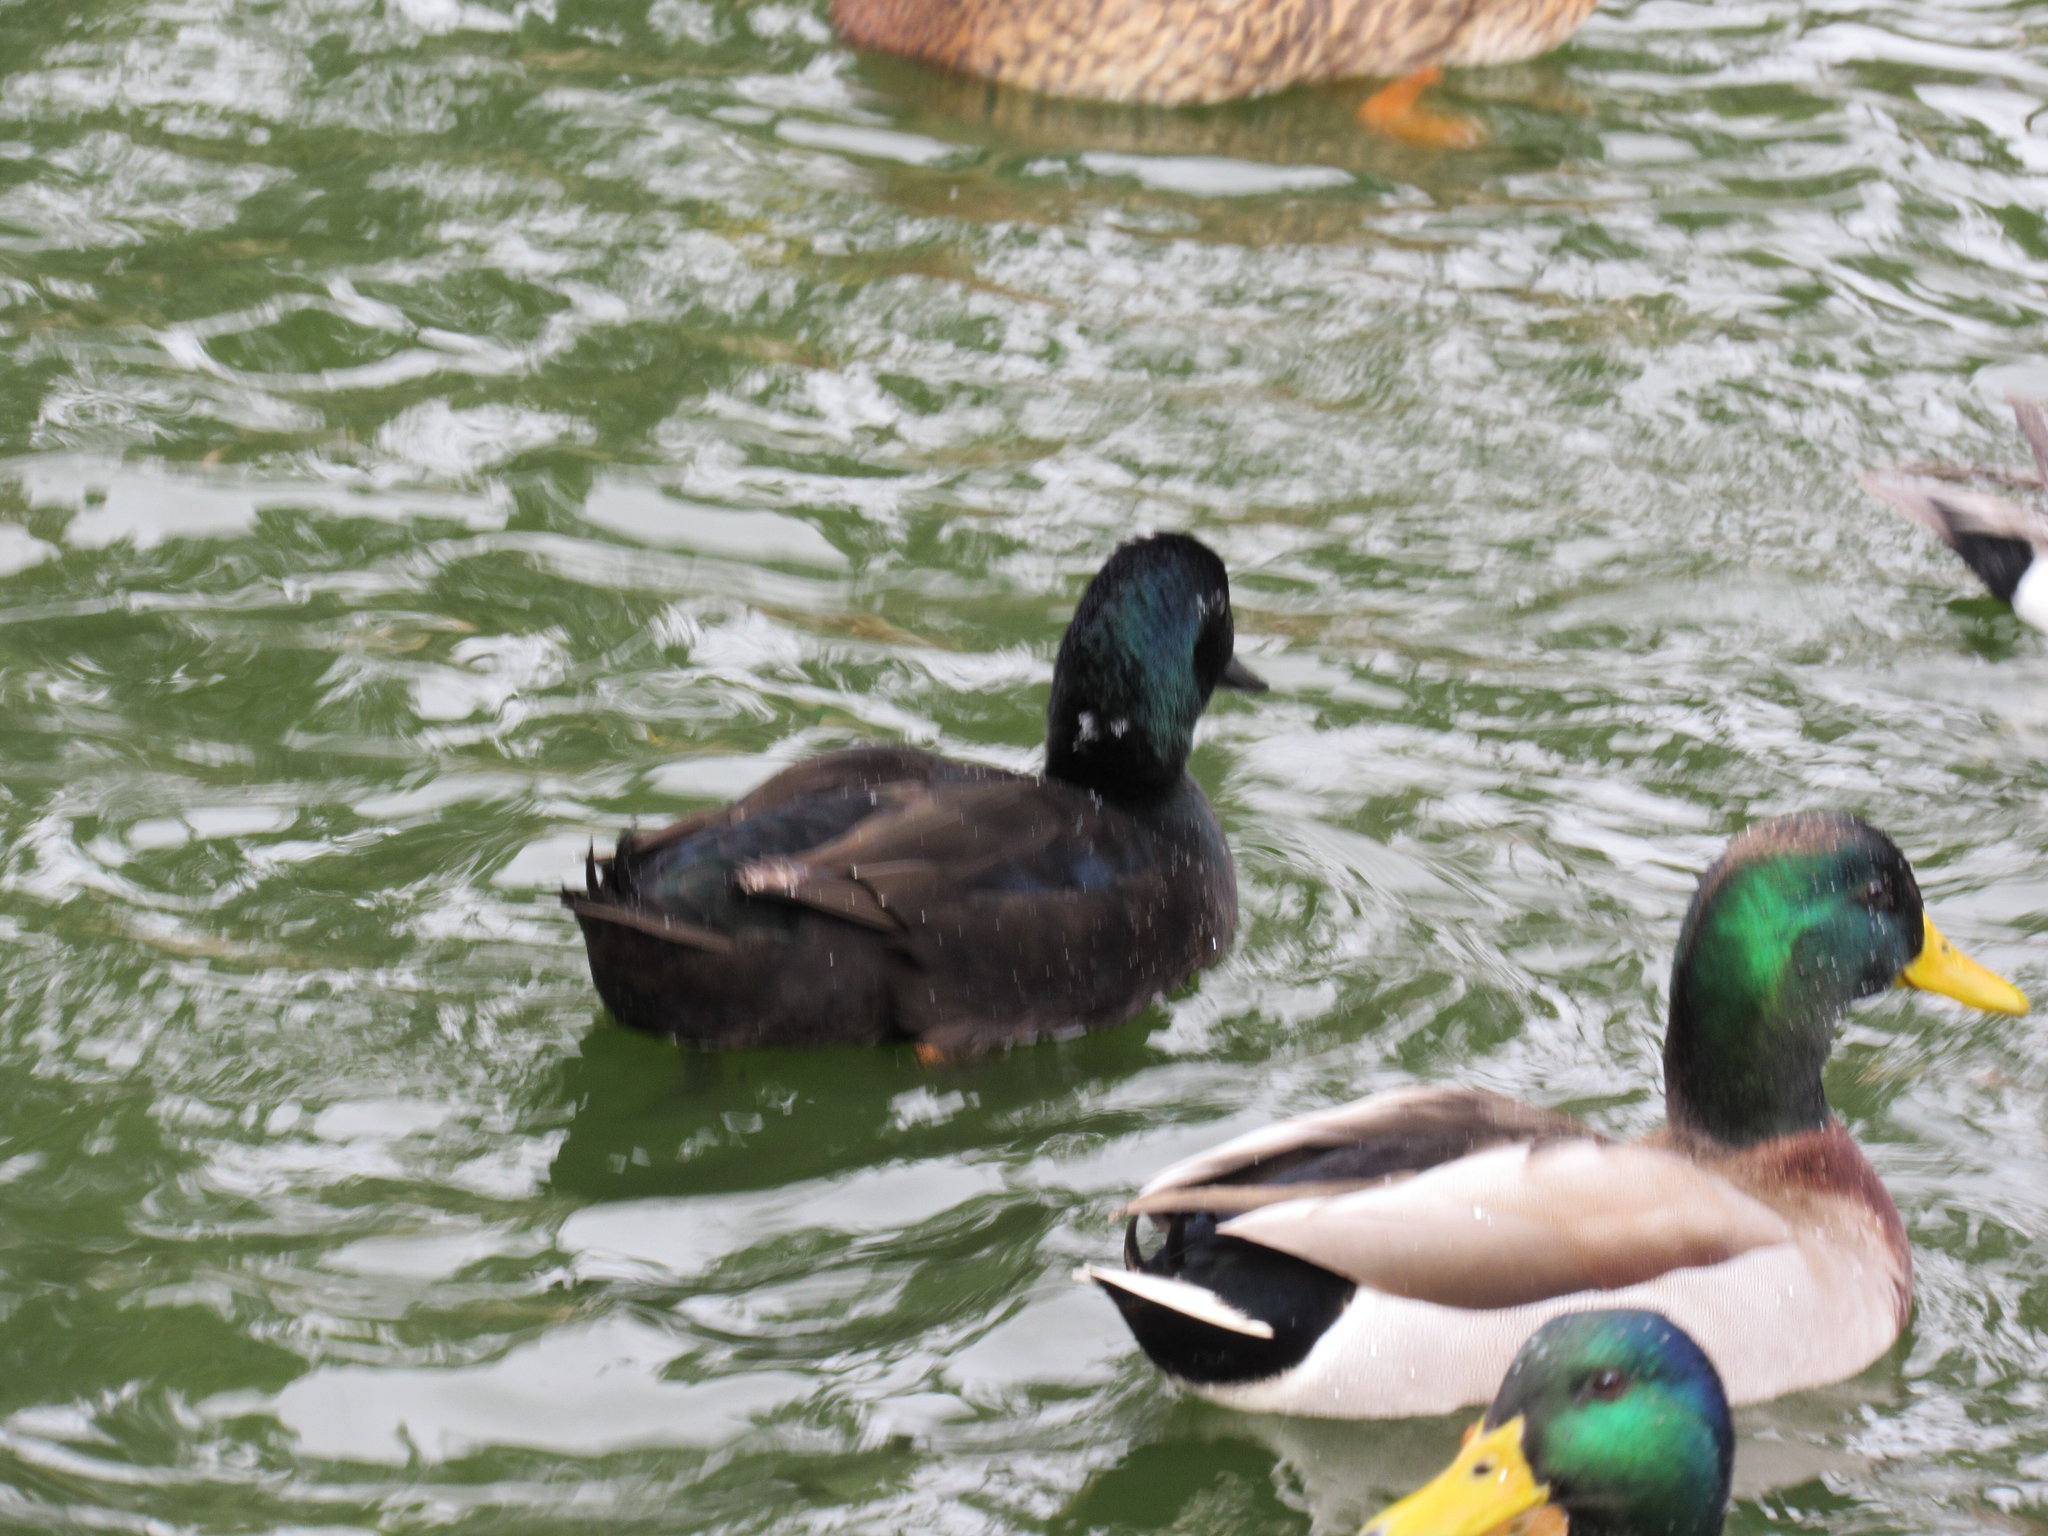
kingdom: Animalia
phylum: Chordata
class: Aves
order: Anseriformes
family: Anatidae
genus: Anas
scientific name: Anas platyrhynchos
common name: Mallard
